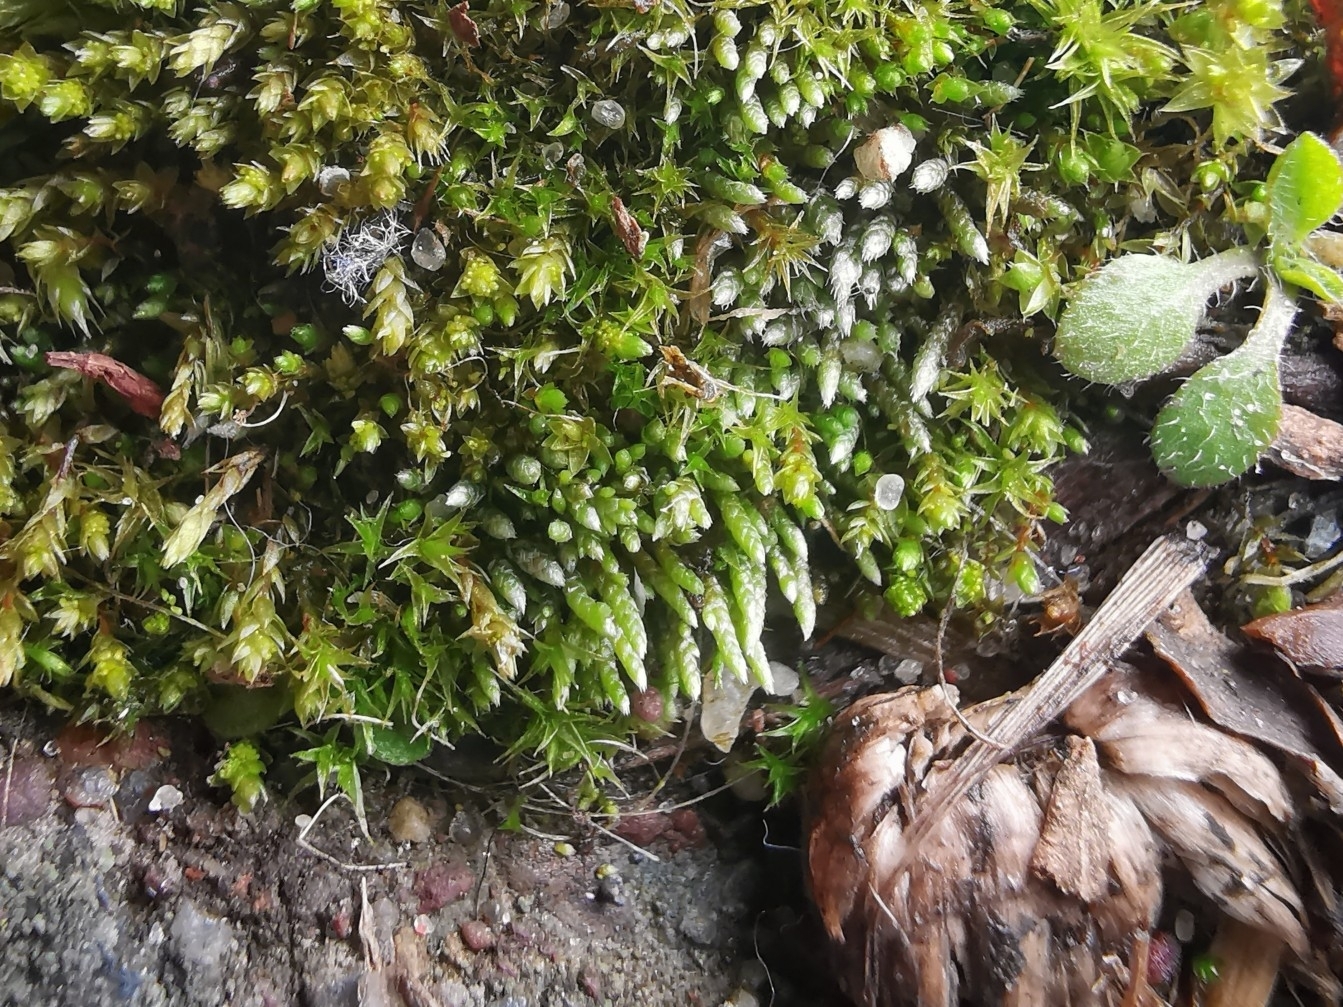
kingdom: Plantae
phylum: Bryophyta
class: Bryopsida
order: Bryales
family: Bryaceae
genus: Bryum
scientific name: Bryum argenteum
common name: Silver-moss
